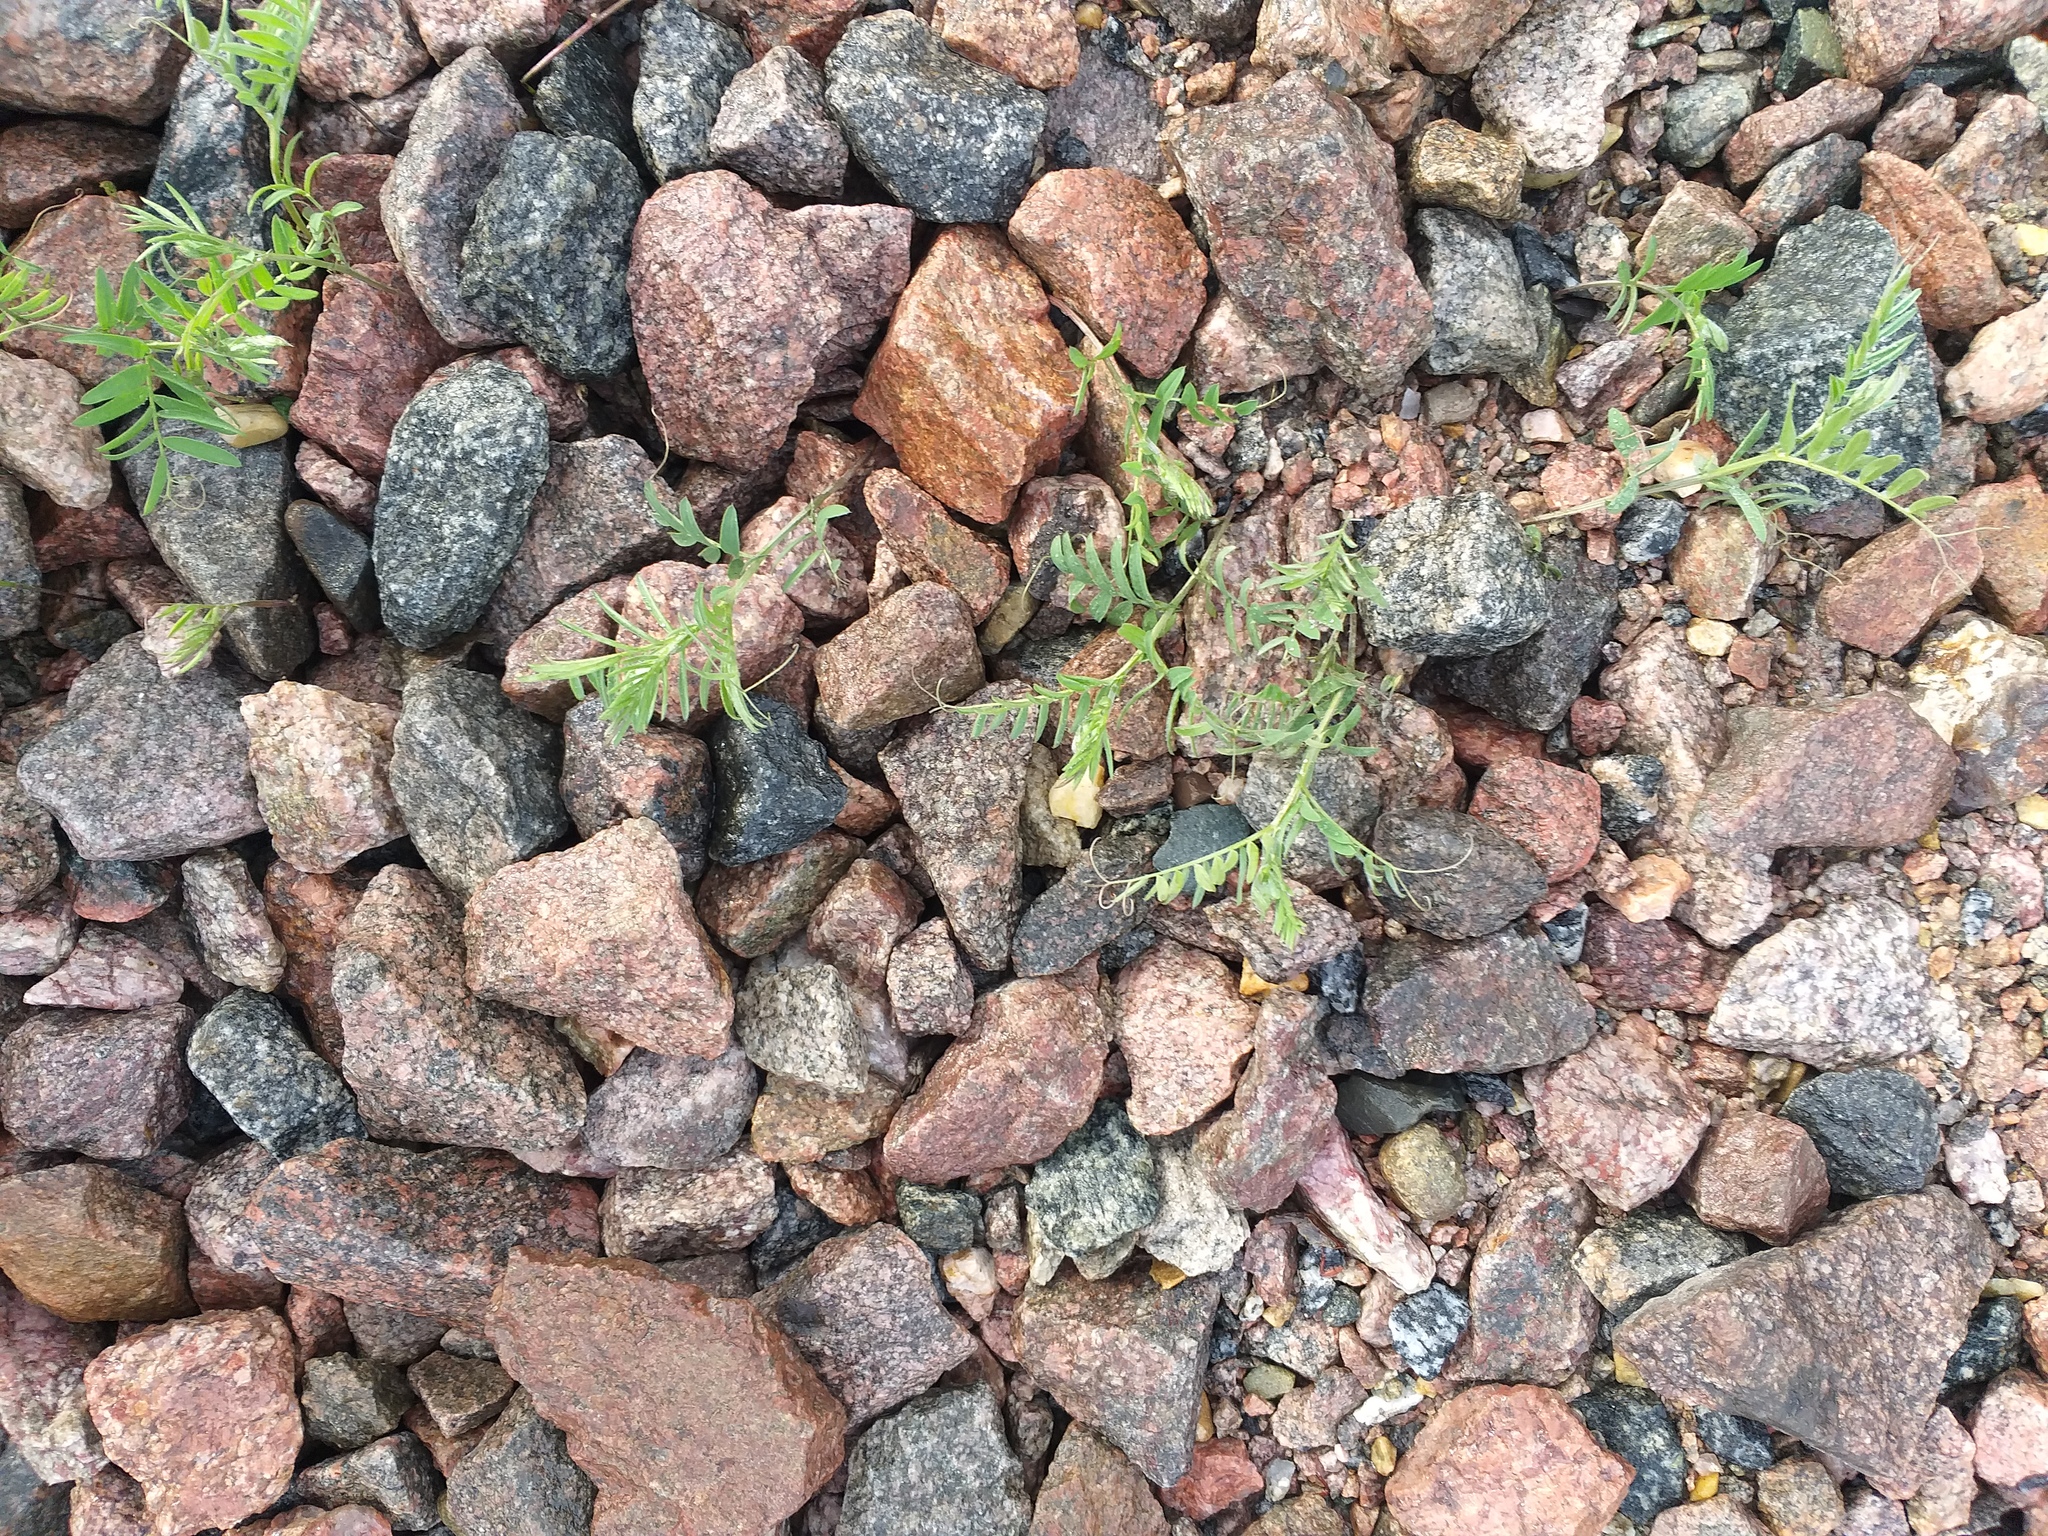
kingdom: Plantae
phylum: Tracheophyta
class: Magnoliopsida
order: Fabales
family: Fabaceae
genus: Vicia
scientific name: Vicia cracca
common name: Bird vetch
